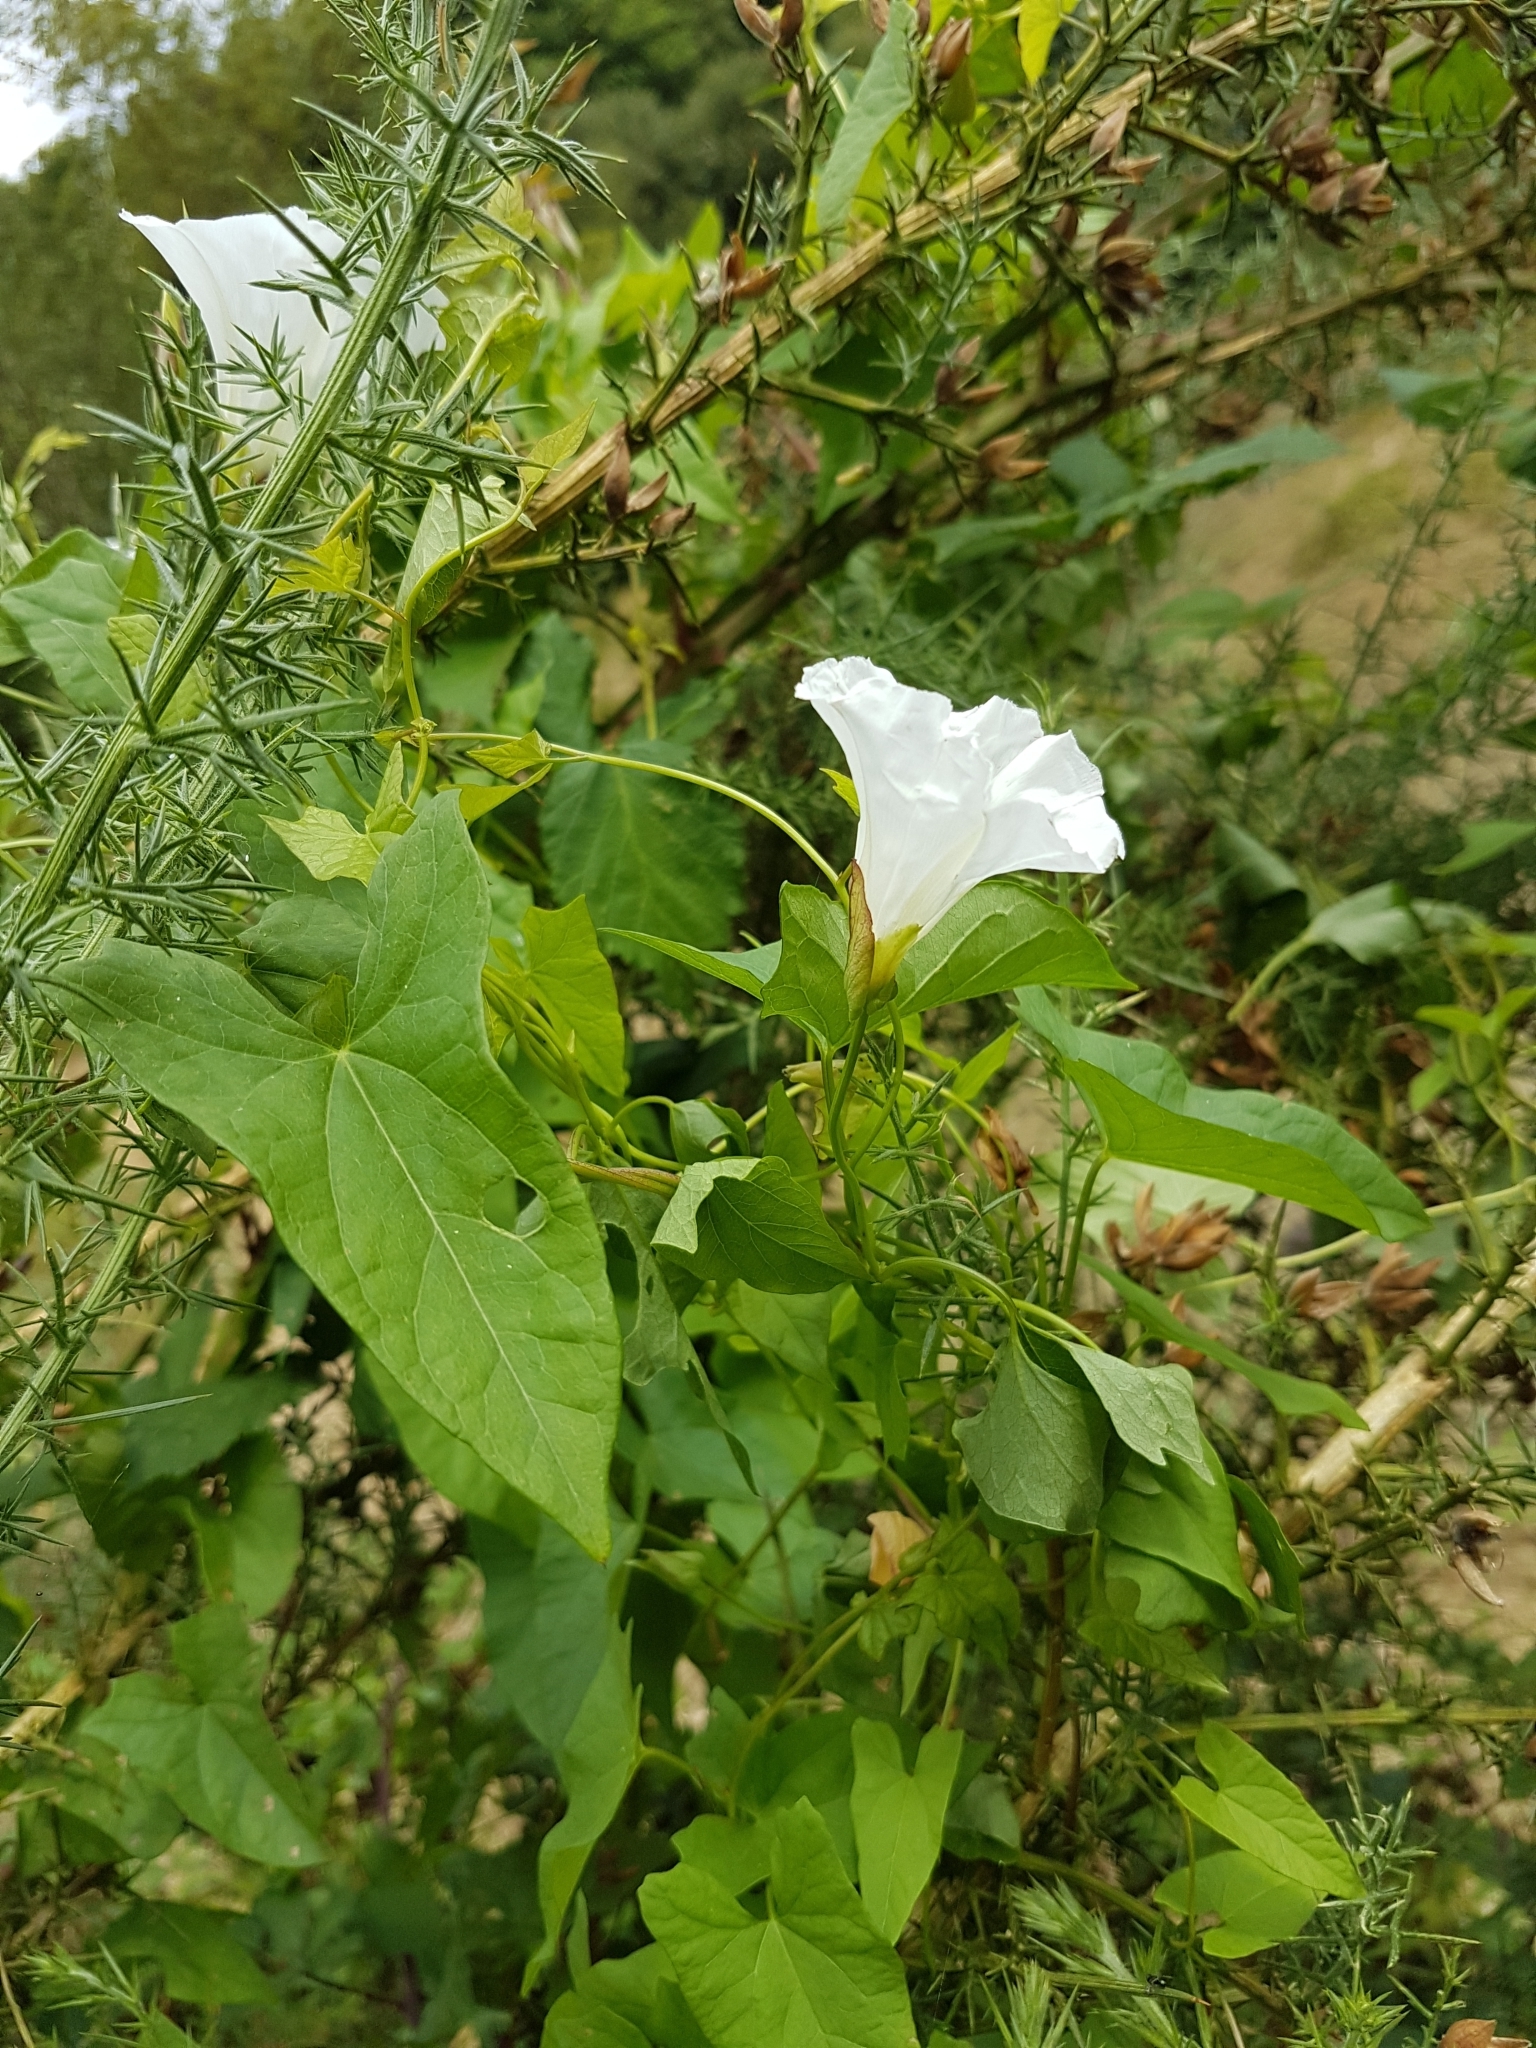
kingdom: Plantae
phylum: Tracheophyta
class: Magnoliopsida
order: Solanales
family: Convolvulaceae
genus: Calystegia
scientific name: Calystegia sepium
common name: Hedge bindweed
